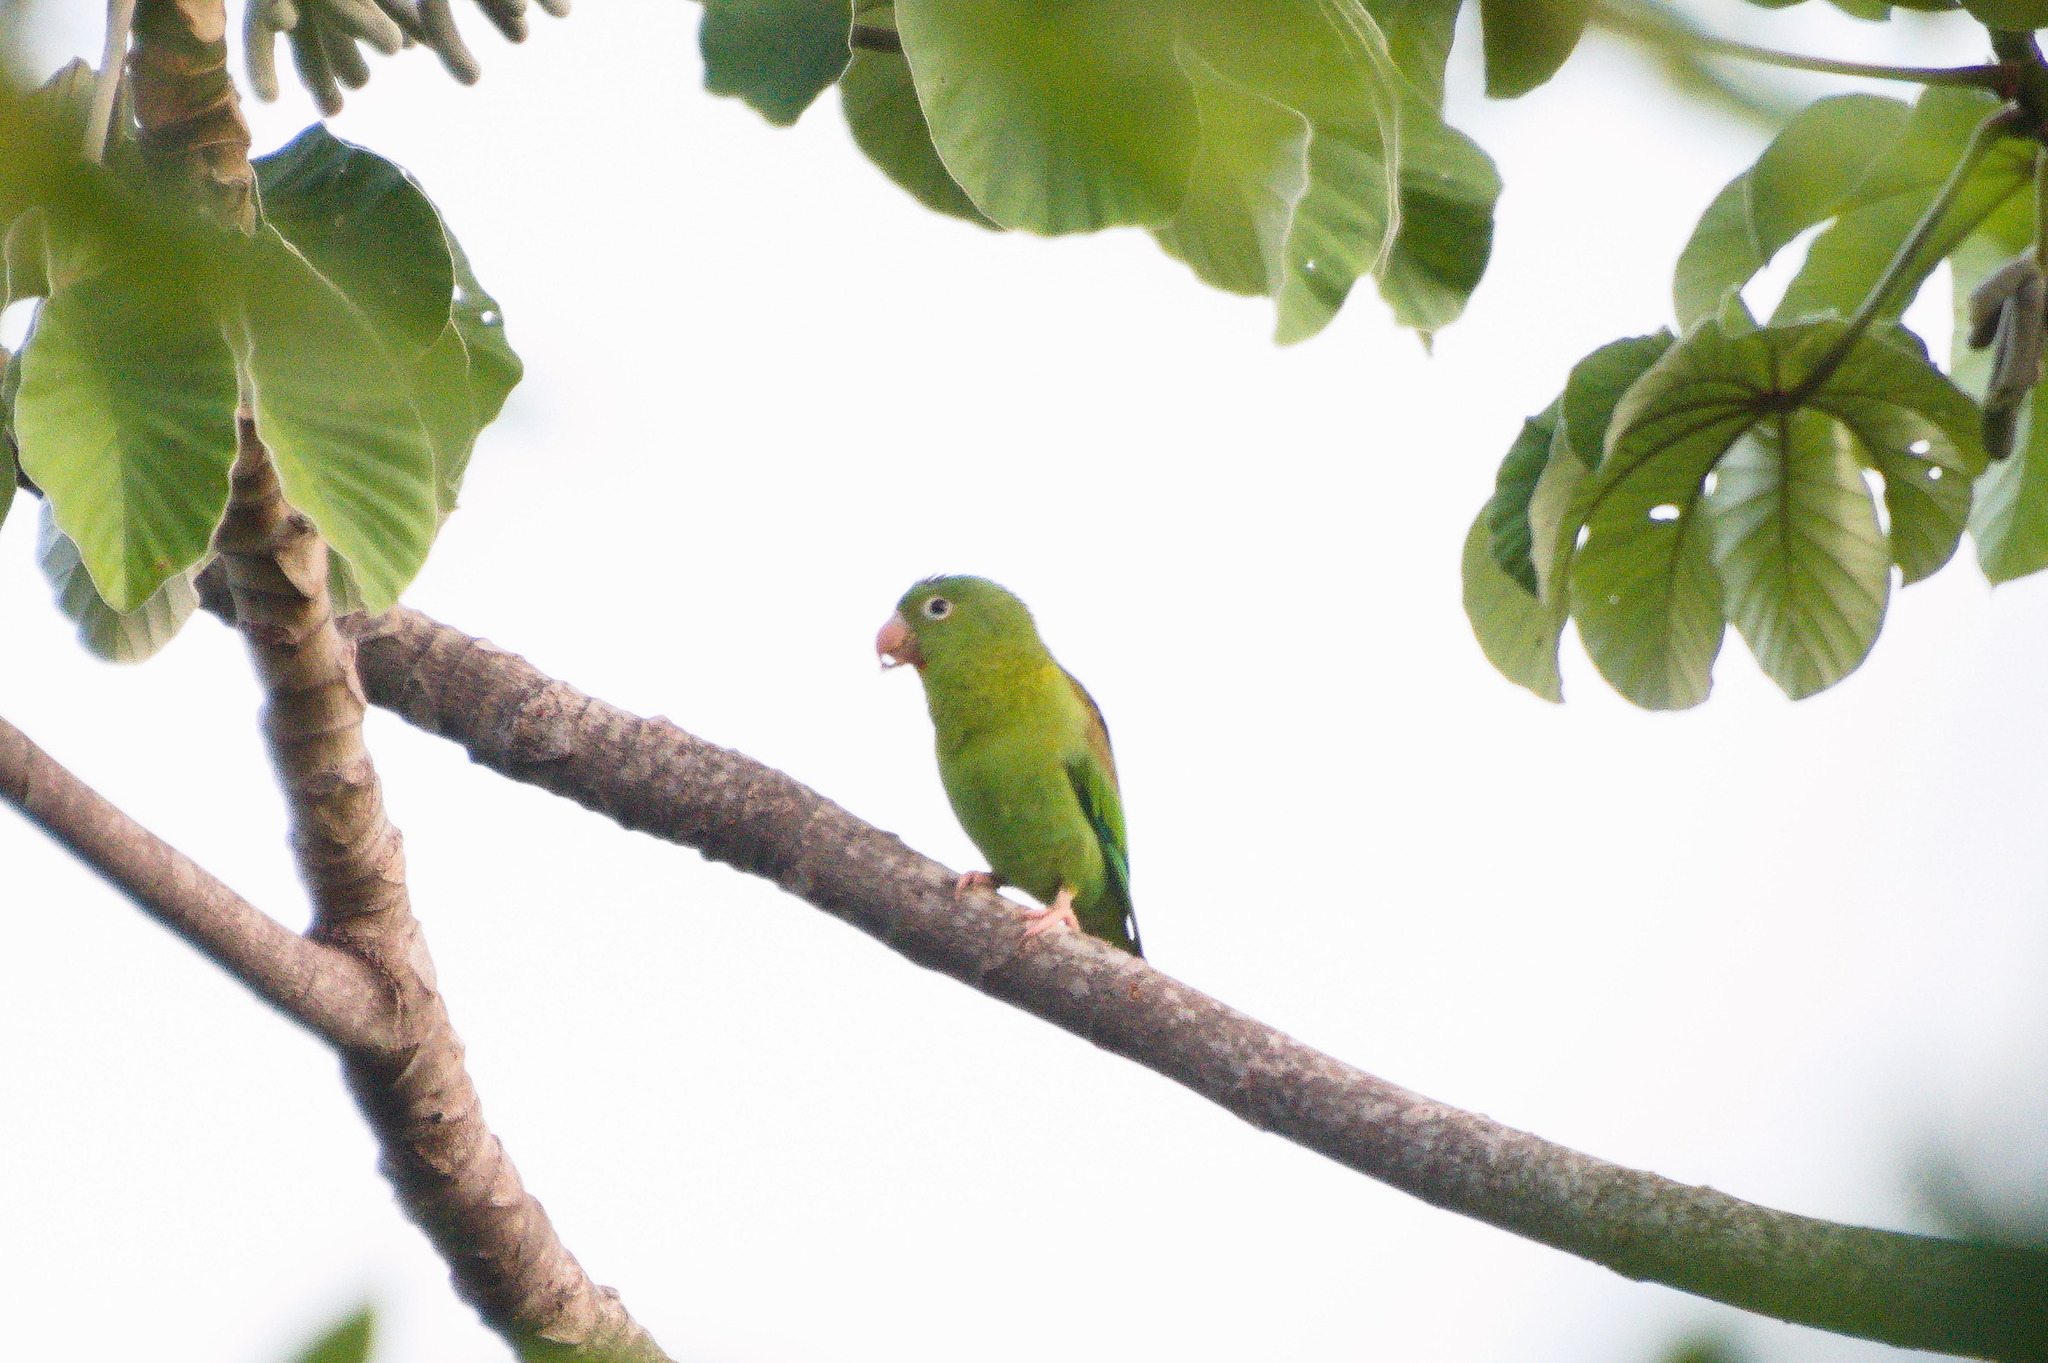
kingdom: Animalia
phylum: Chordata
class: Aves
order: Psittaciformes
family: Psittacidae
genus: Brotogeris
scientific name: Brotogeris jugularis
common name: Orange-chinned parakeet
